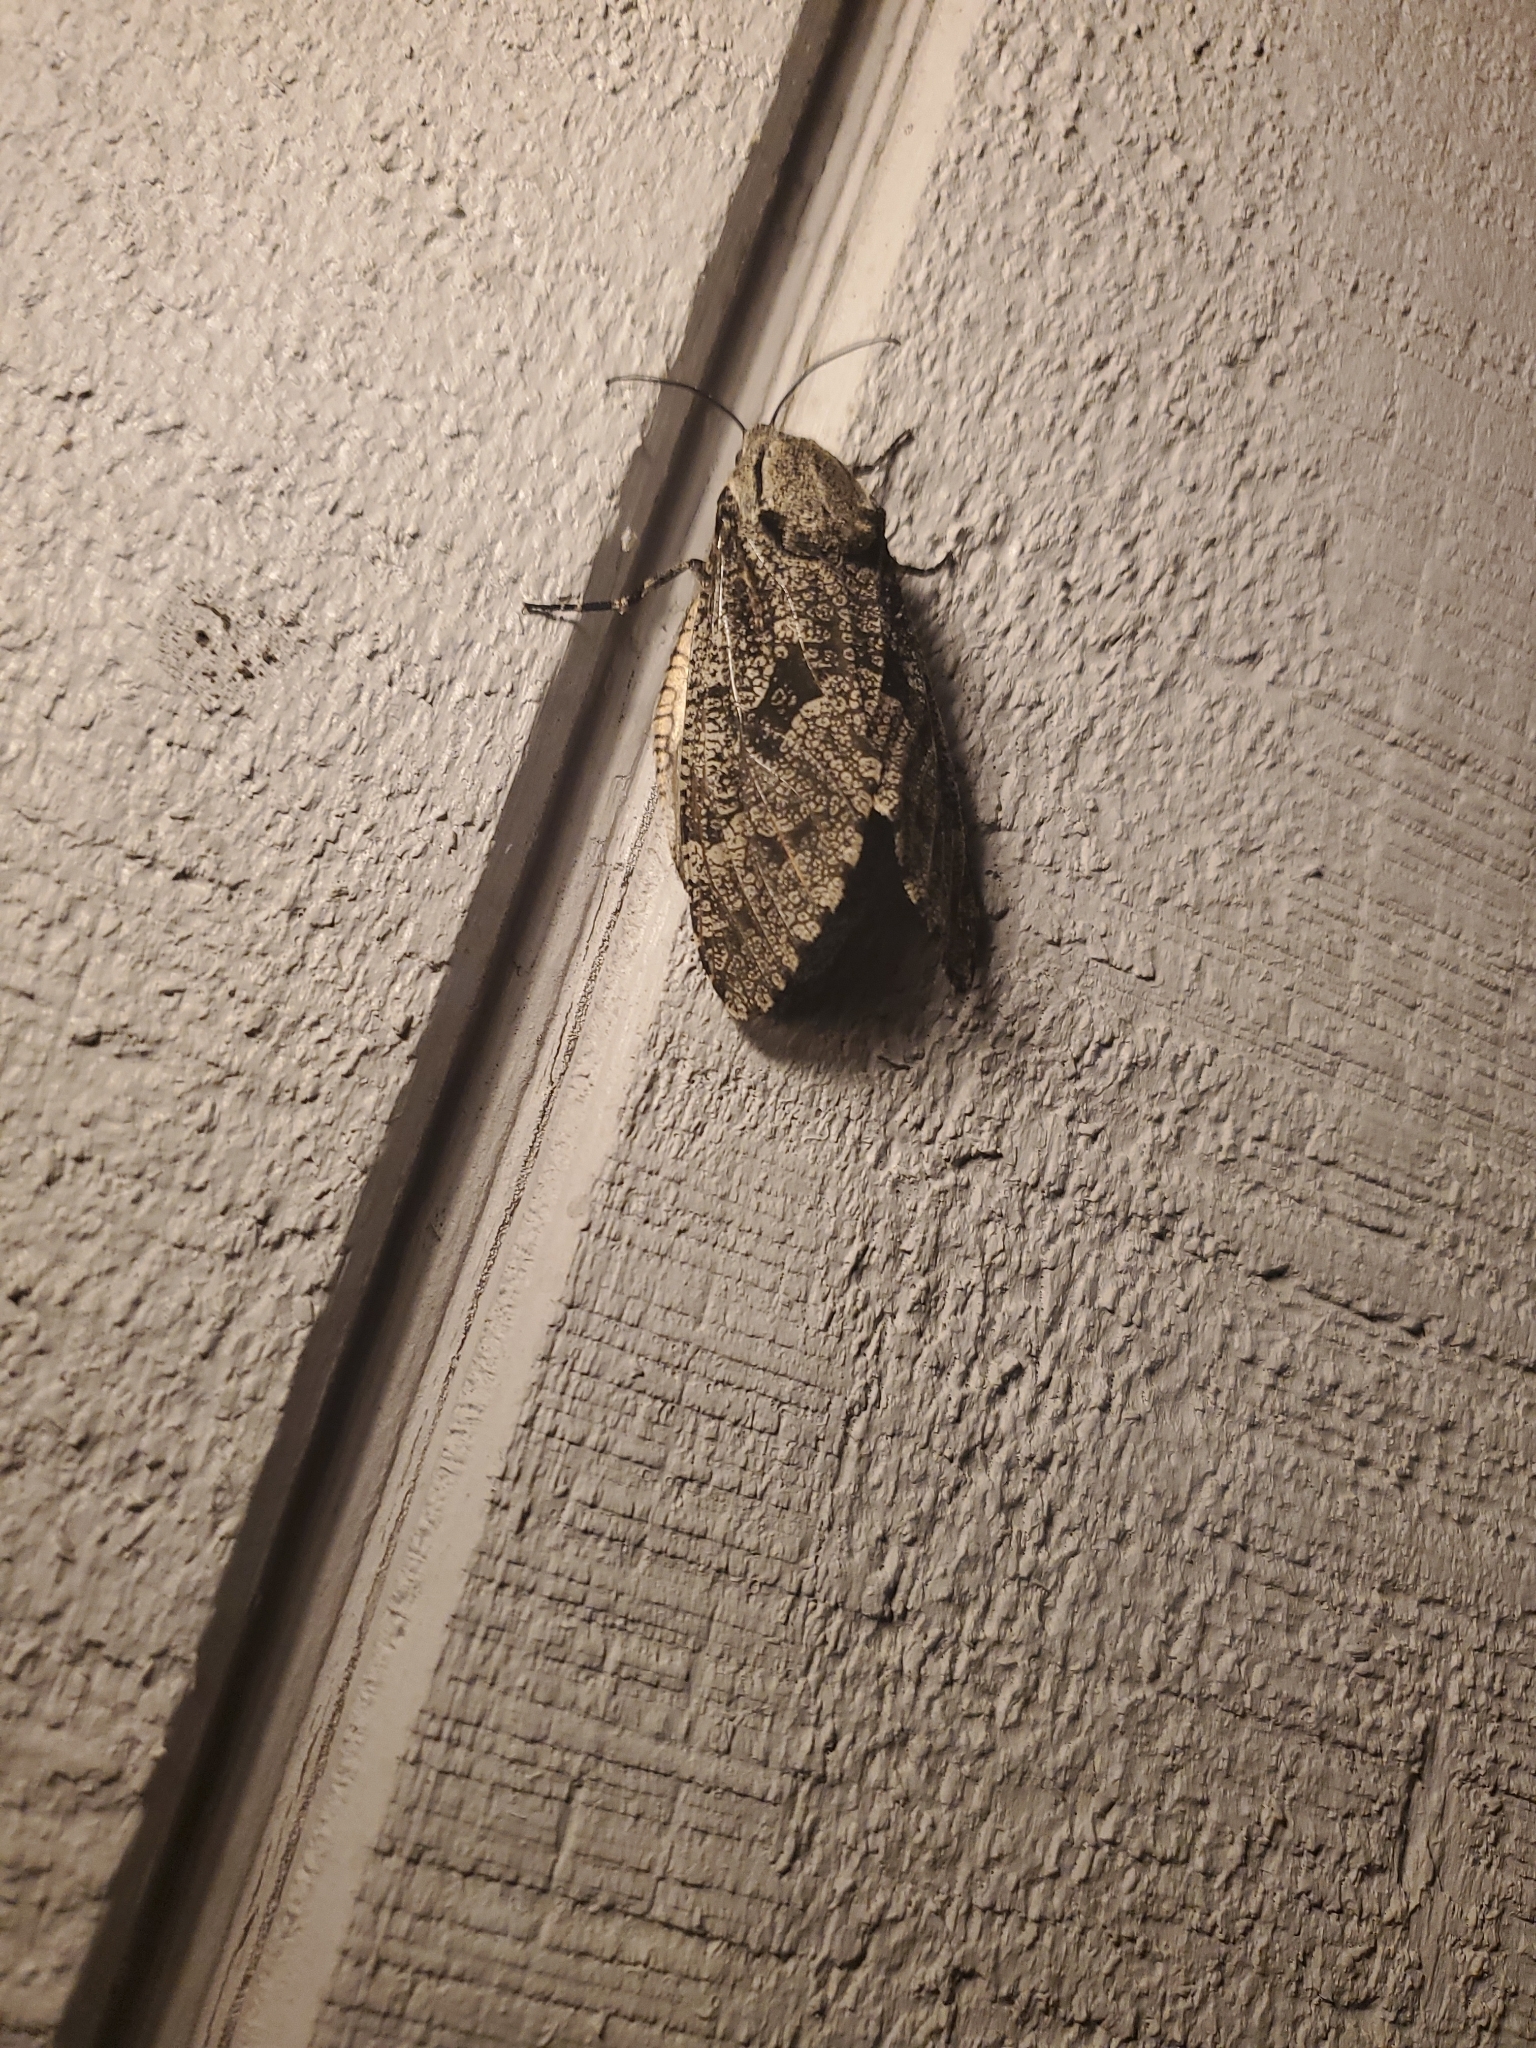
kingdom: Animalia
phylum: Arthropoda
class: Insecta
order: Lepidoptera
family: Cossidae
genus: Prionoxystus
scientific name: Prionoxystus robiniae
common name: Carpenterworm
